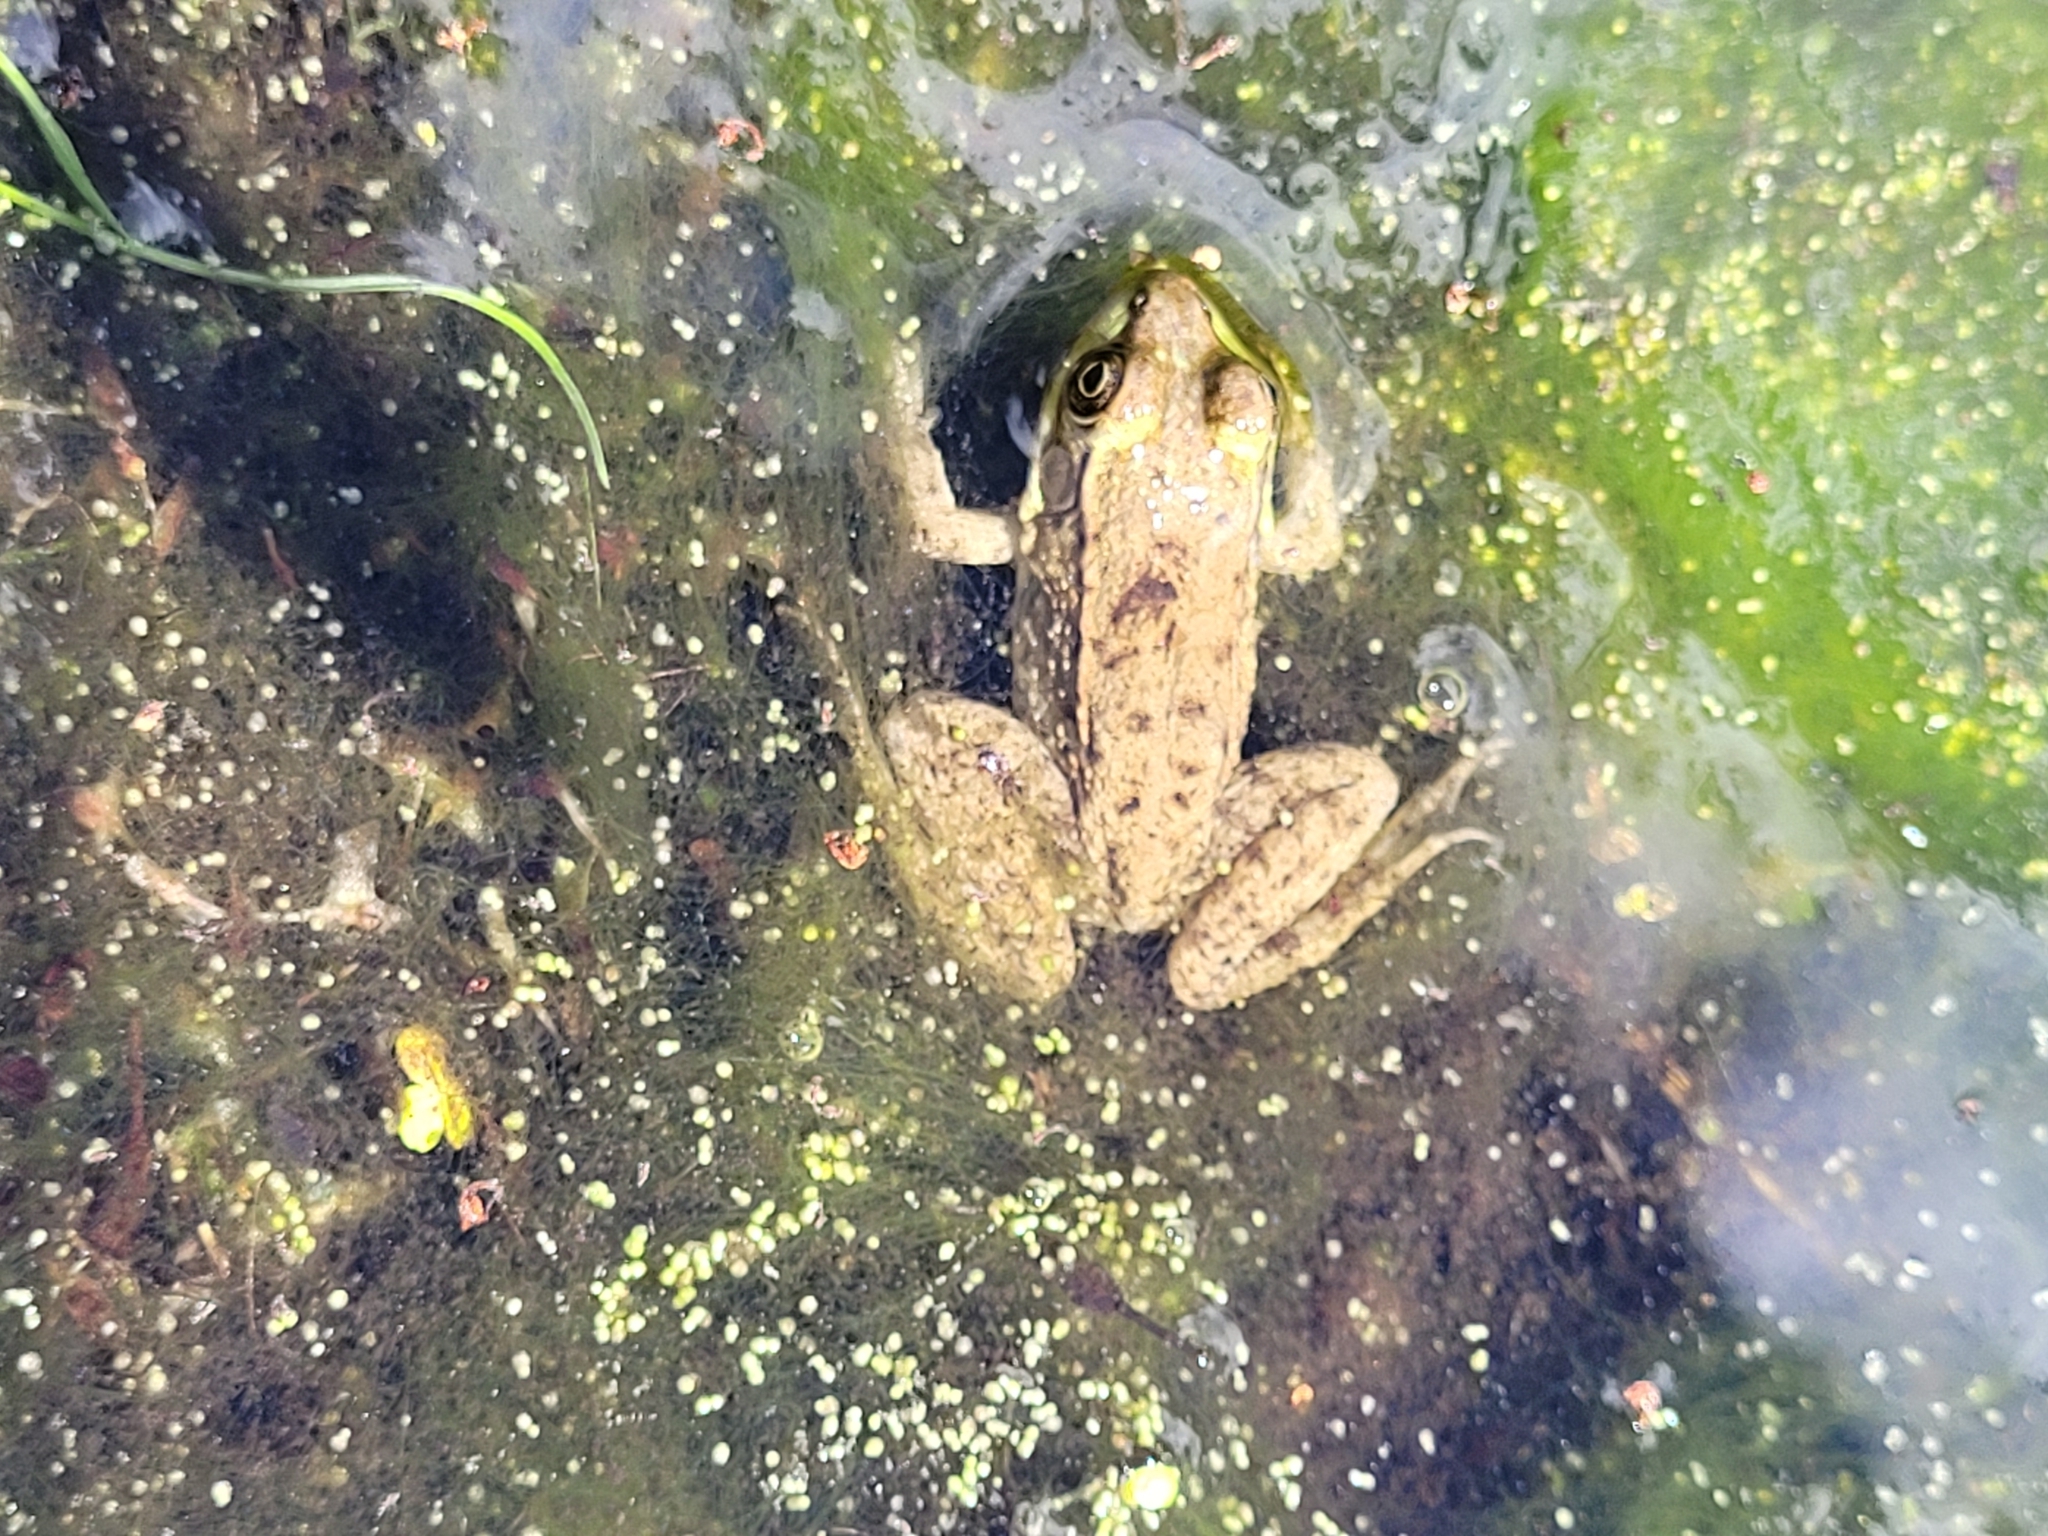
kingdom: Animalia
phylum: Chordata
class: Amphibia
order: Anura
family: Ranidae
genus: Lithobates
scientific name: Lithobates clamitans
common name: Green frog
